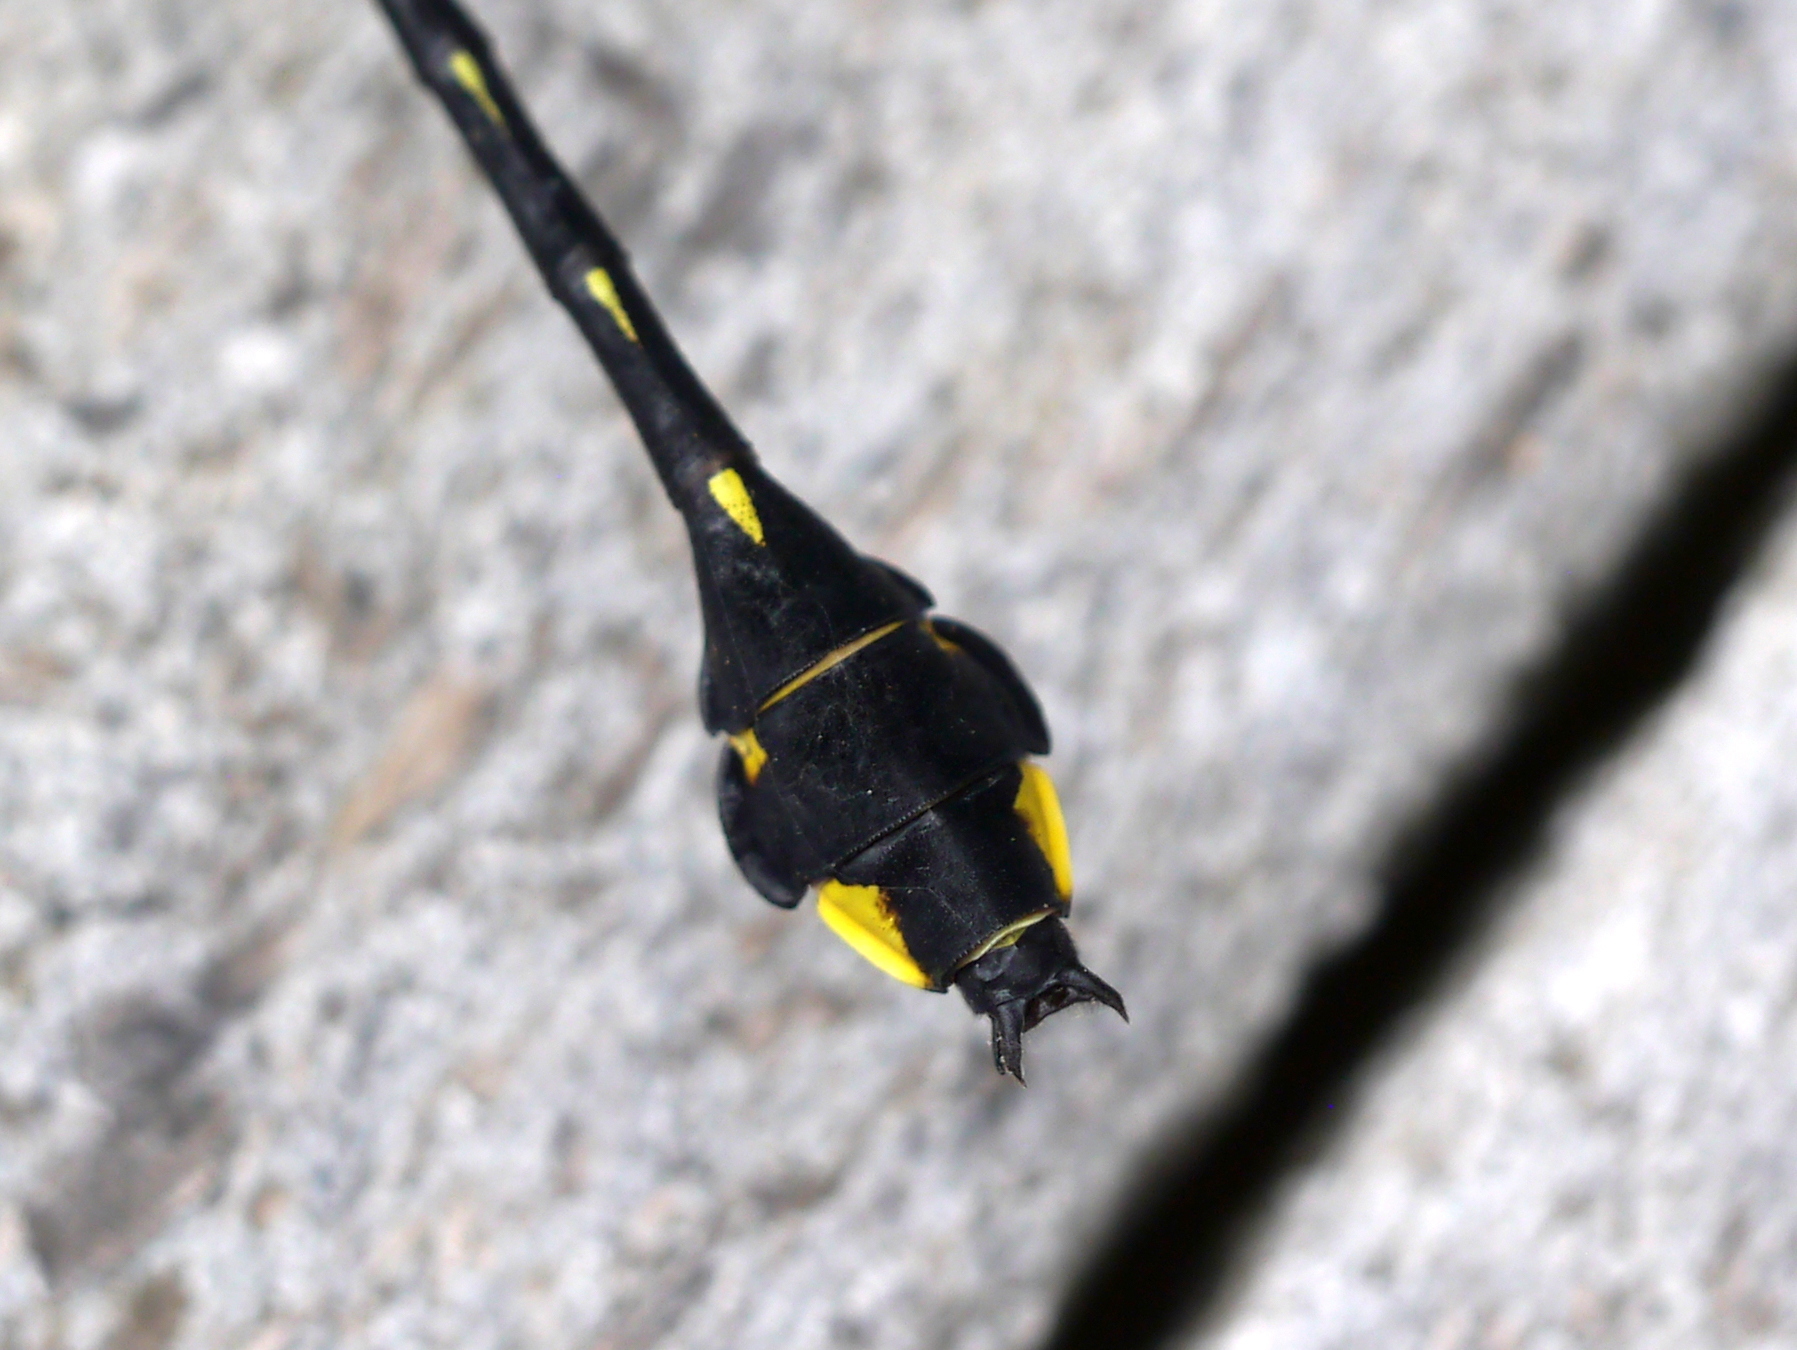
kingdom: Animalia
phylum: Arthropoda
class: Insecta
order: Odonata
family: Gomphidae
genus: Gomphurus
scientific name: Gomphurus vastus
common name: Cobra clubtail
